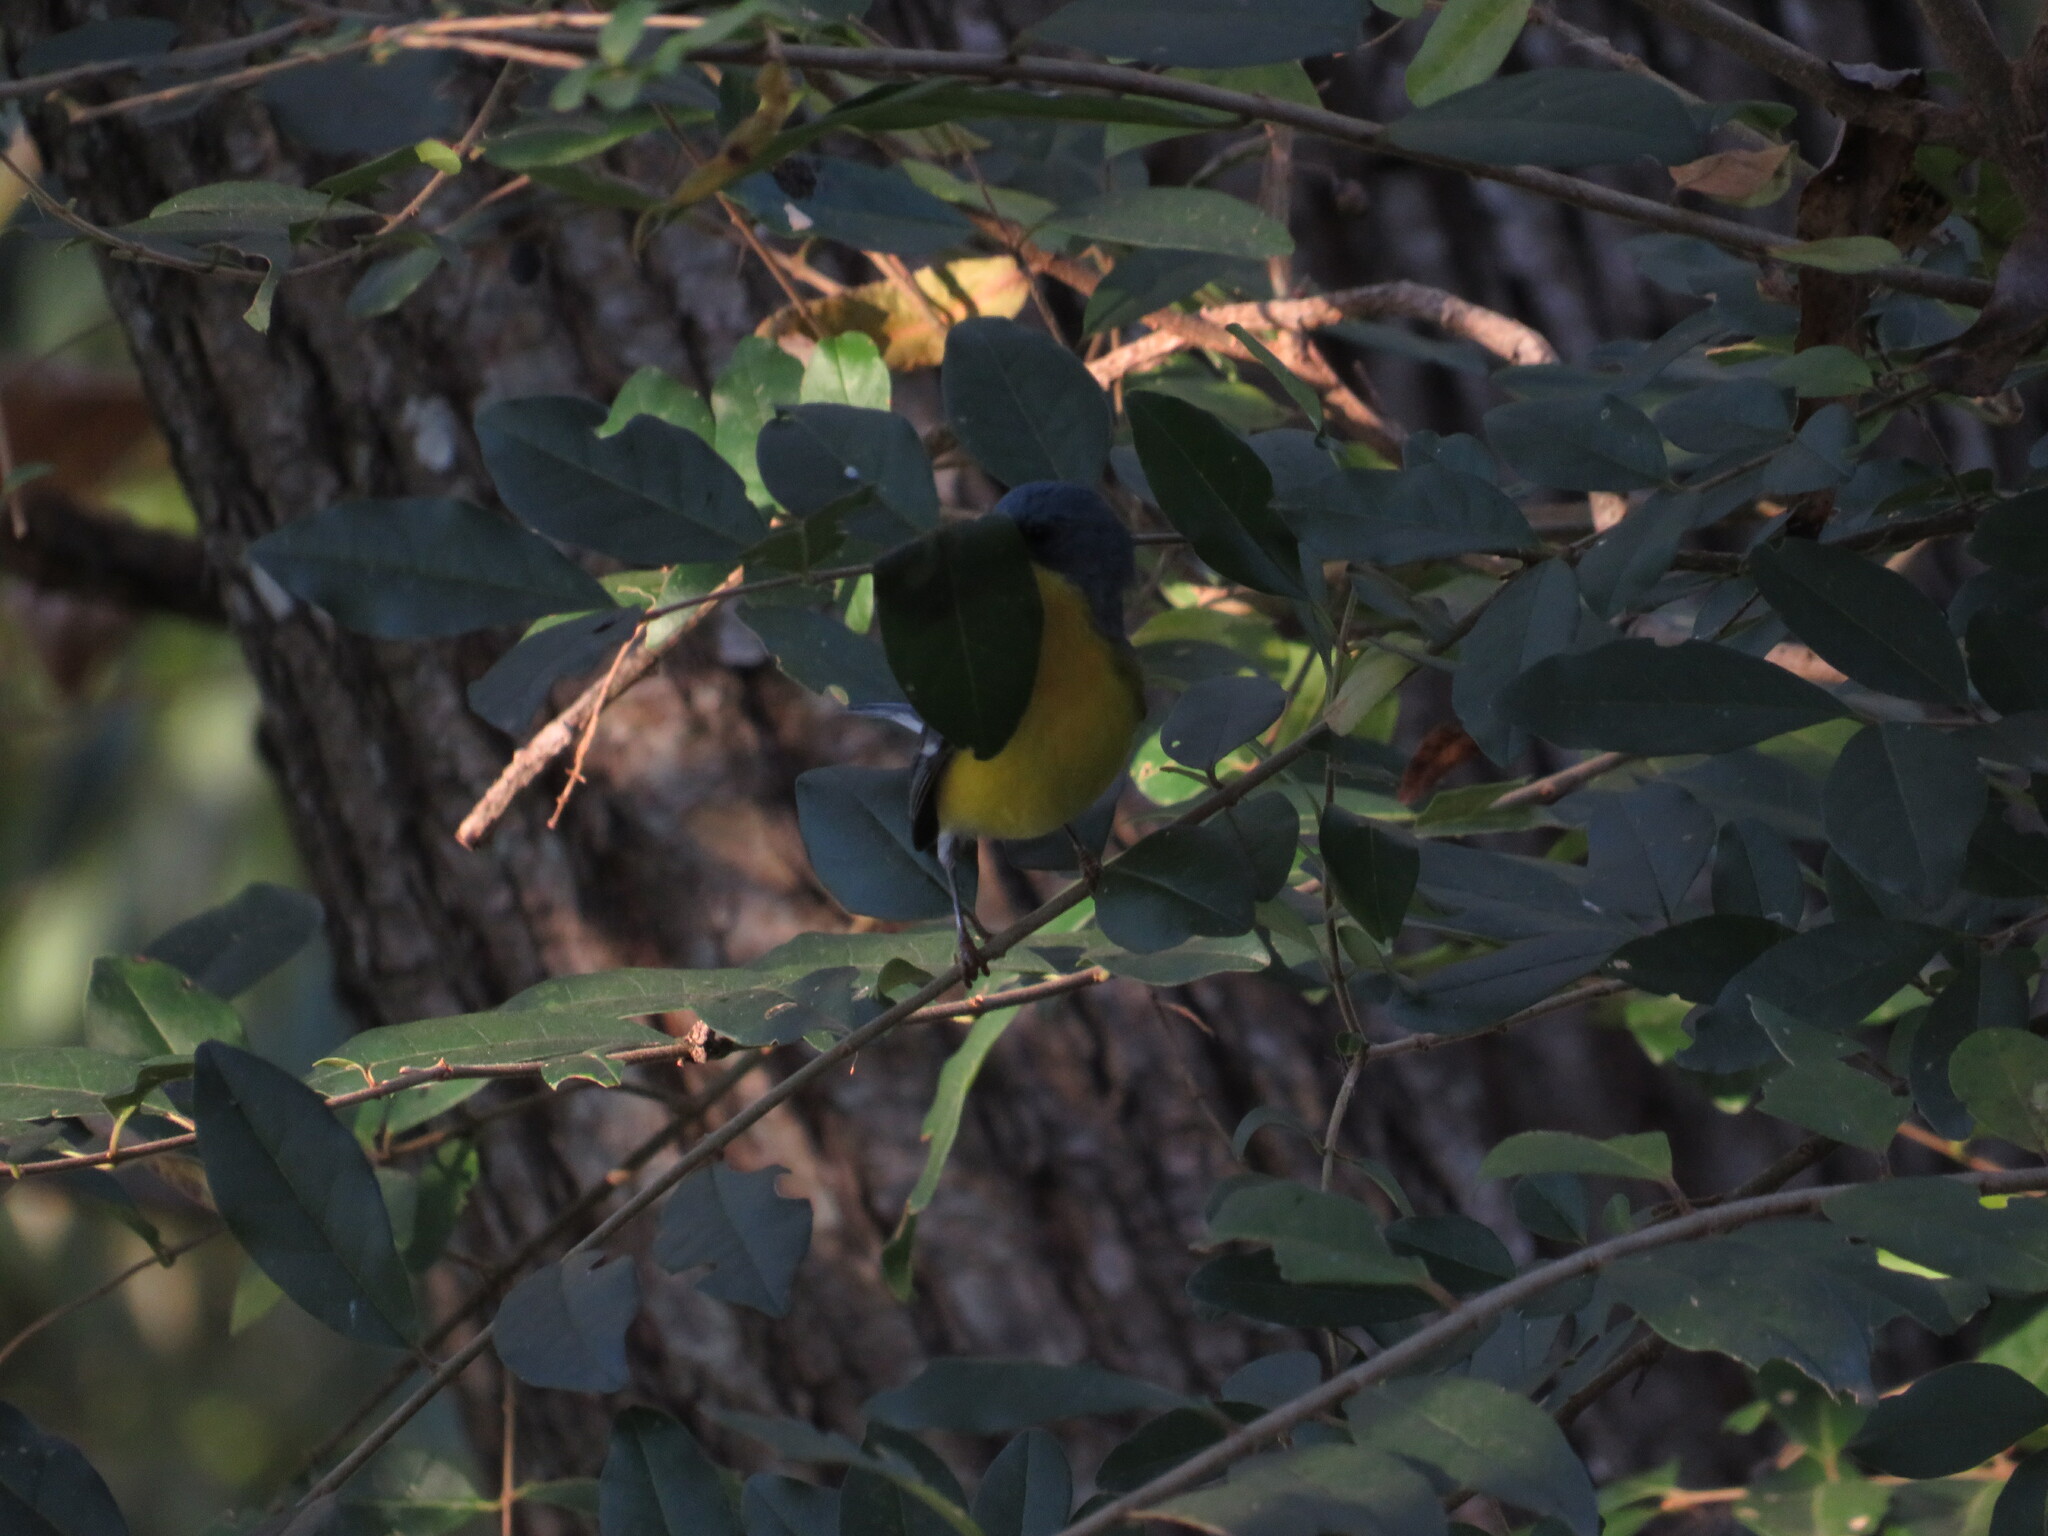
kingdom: Animalia
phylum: Chordata
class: Aves
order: Passeriformes
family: Parulidae
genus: Setophaga
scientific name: Setophaga pitiayumi
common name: Tropical parula
